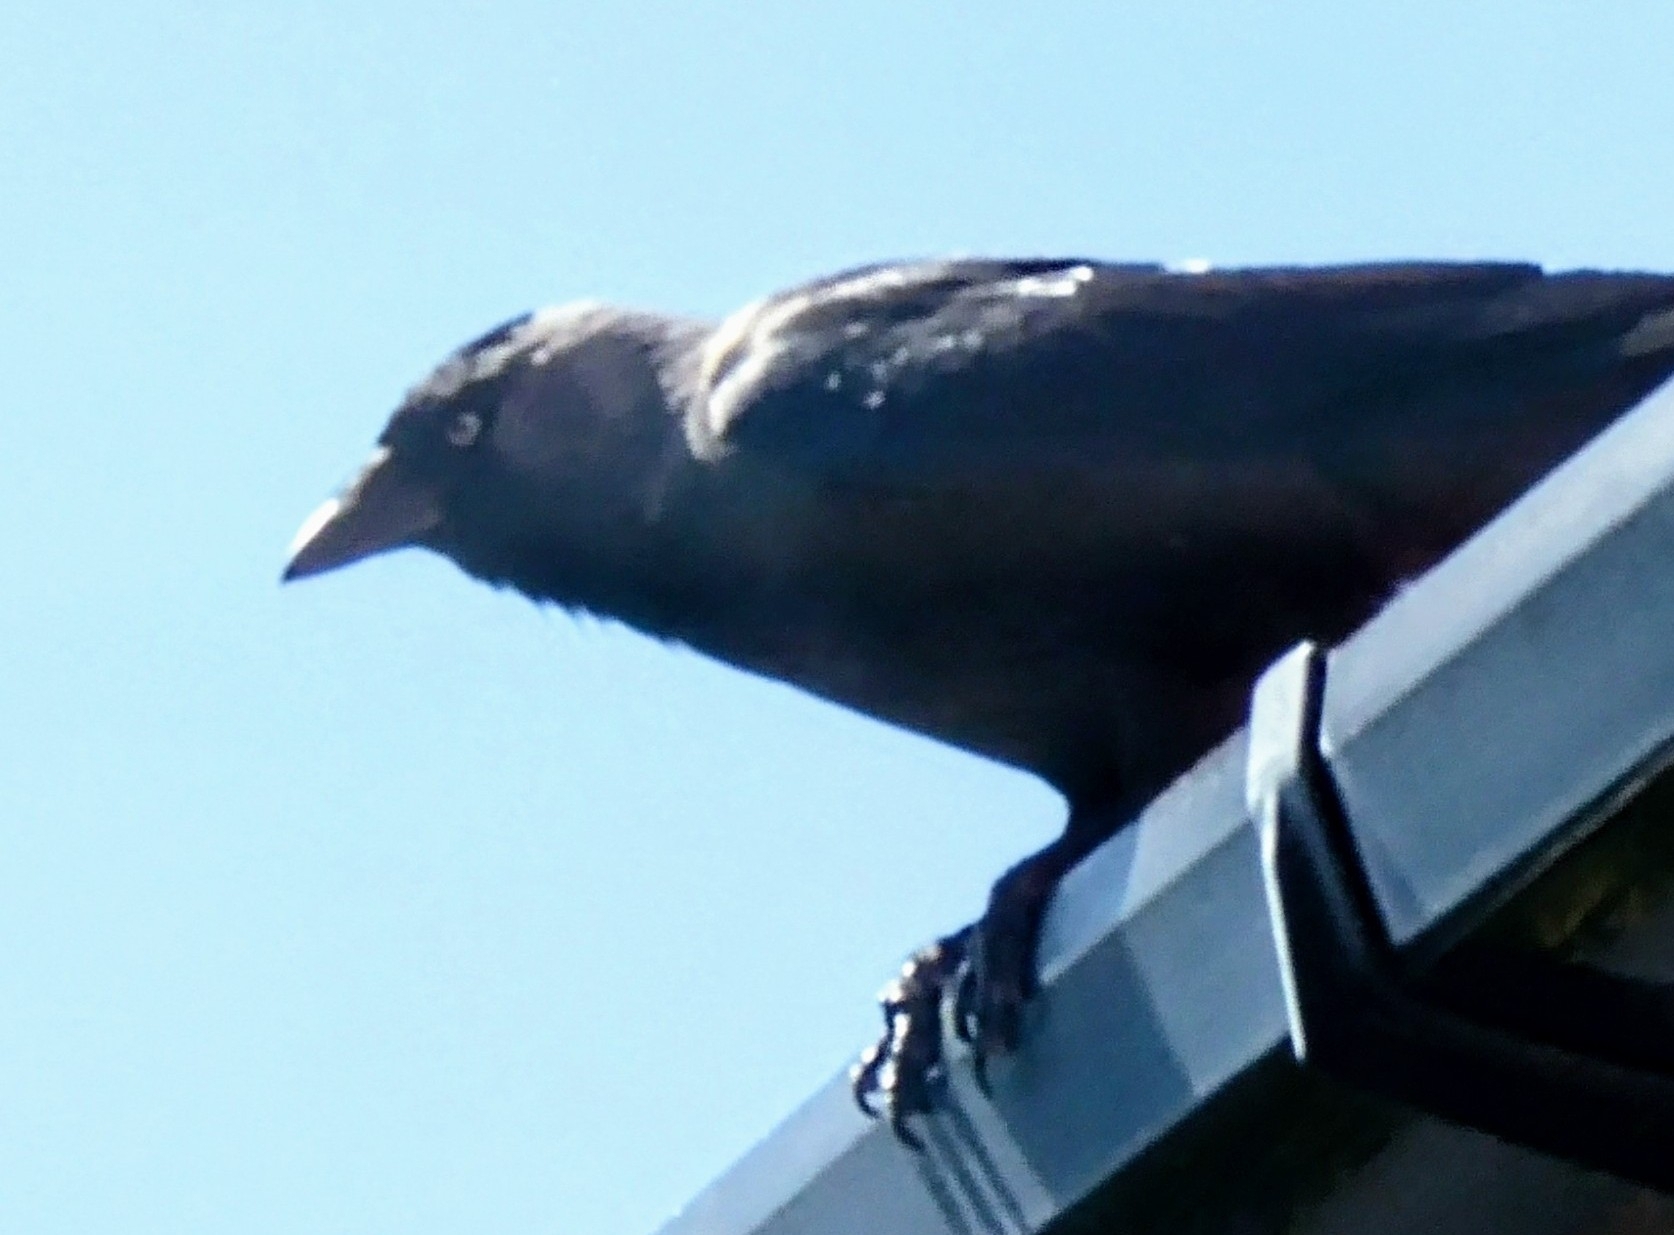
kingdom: Animalia
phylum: Chordata
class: Aves
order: Passeriformes
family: Corvidae
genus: Coloeus
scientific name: Coloeus monedula
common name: Western jackdaw
